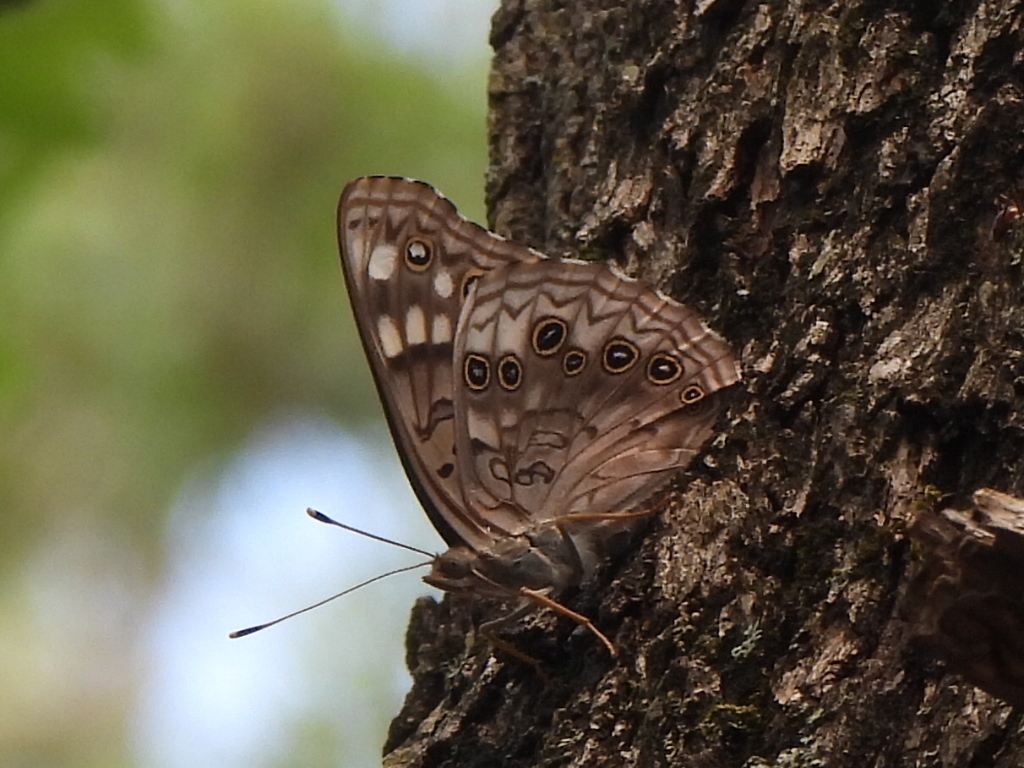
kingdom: Animalia
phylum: Arthropoda
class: Insecta
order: Lepidoptera
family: Nymphalidae
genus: Asterocampa
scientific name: Asterocampa celtis
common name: Hackberry emperor
